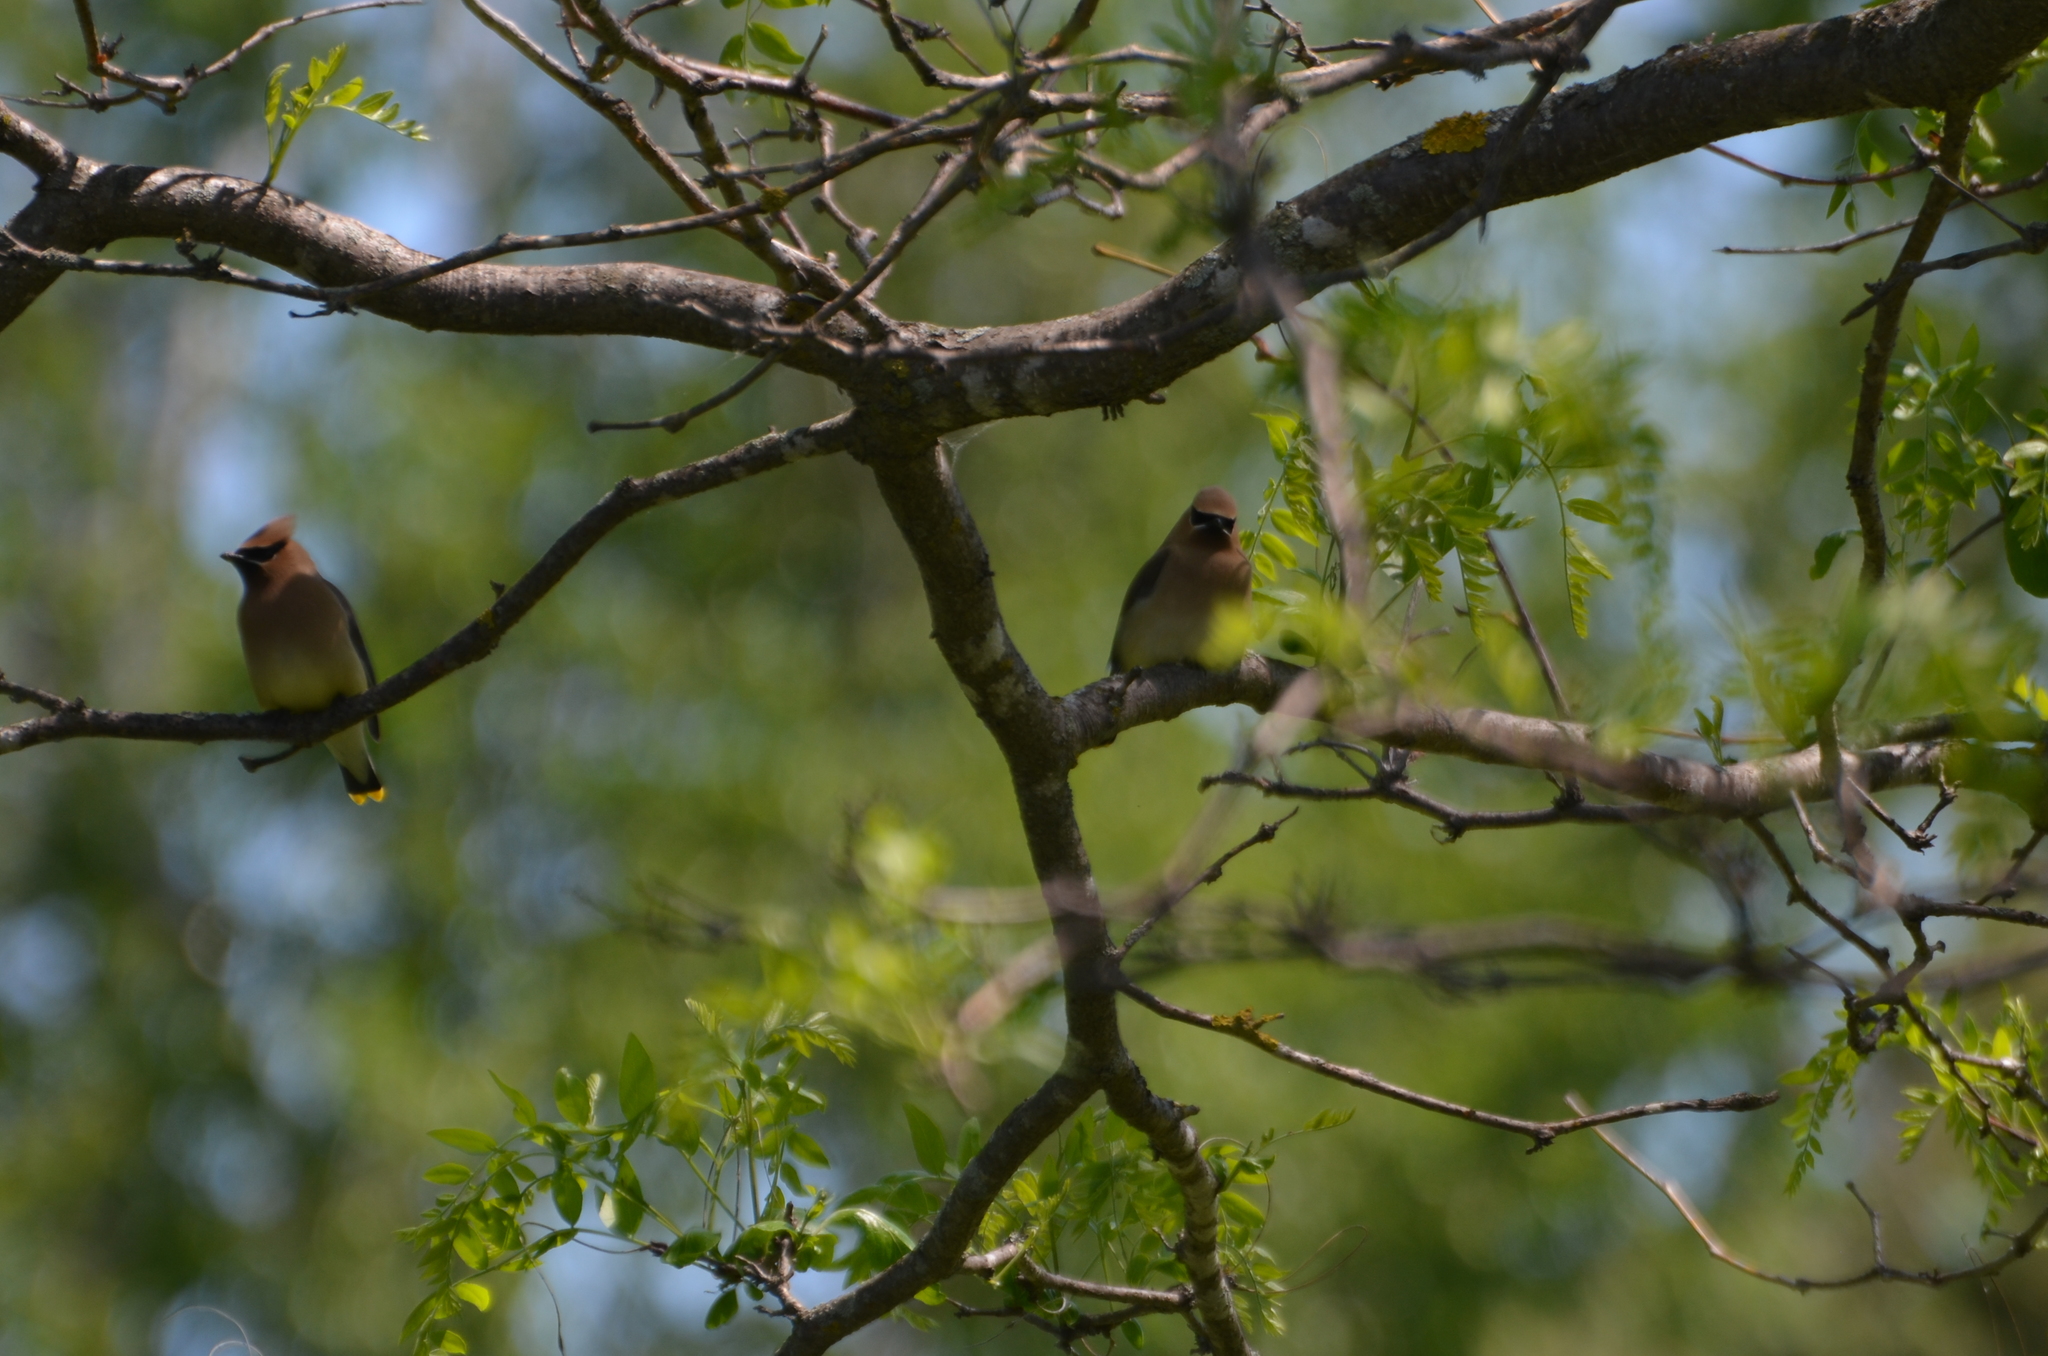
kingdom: Animalia
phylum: Chordata
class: Aves
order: Passeriformes
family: Bombycillidae
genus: Bombycilla
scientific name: Bombycilla cedrorum
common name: Cedar waxwing
